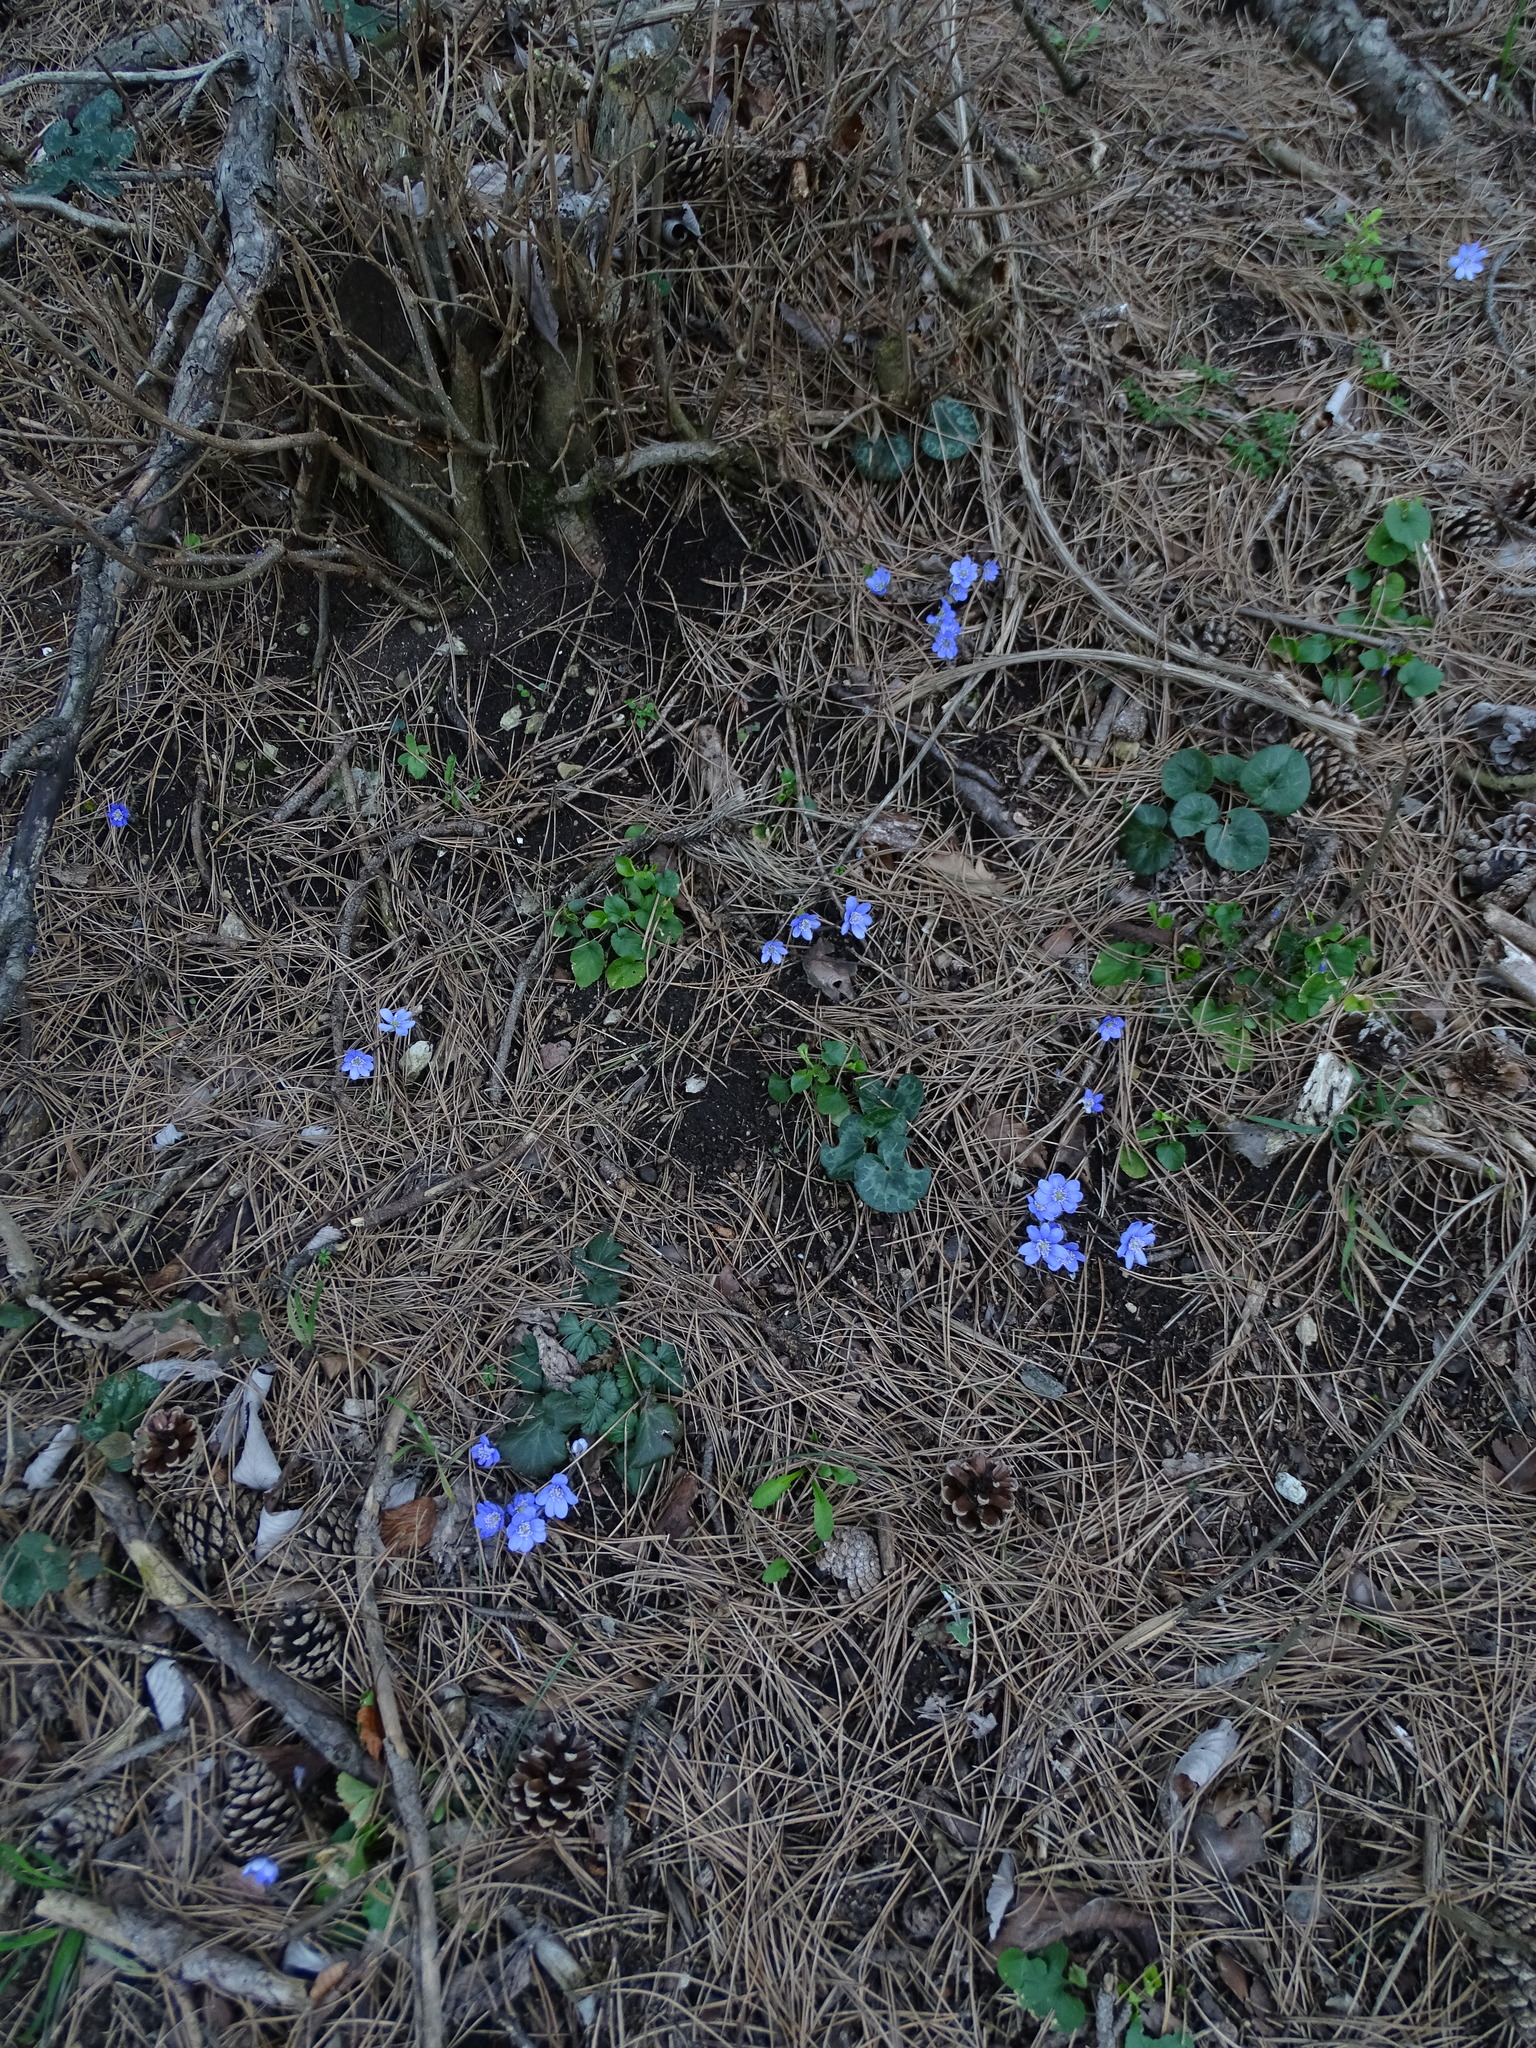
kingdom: Plantae
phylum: Tracheophyta
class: Magnoliopsida
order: Ranunculales
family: Ranunculaceae
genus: Hepatica
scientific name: Hepatica nobilis
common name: Liverleaf
